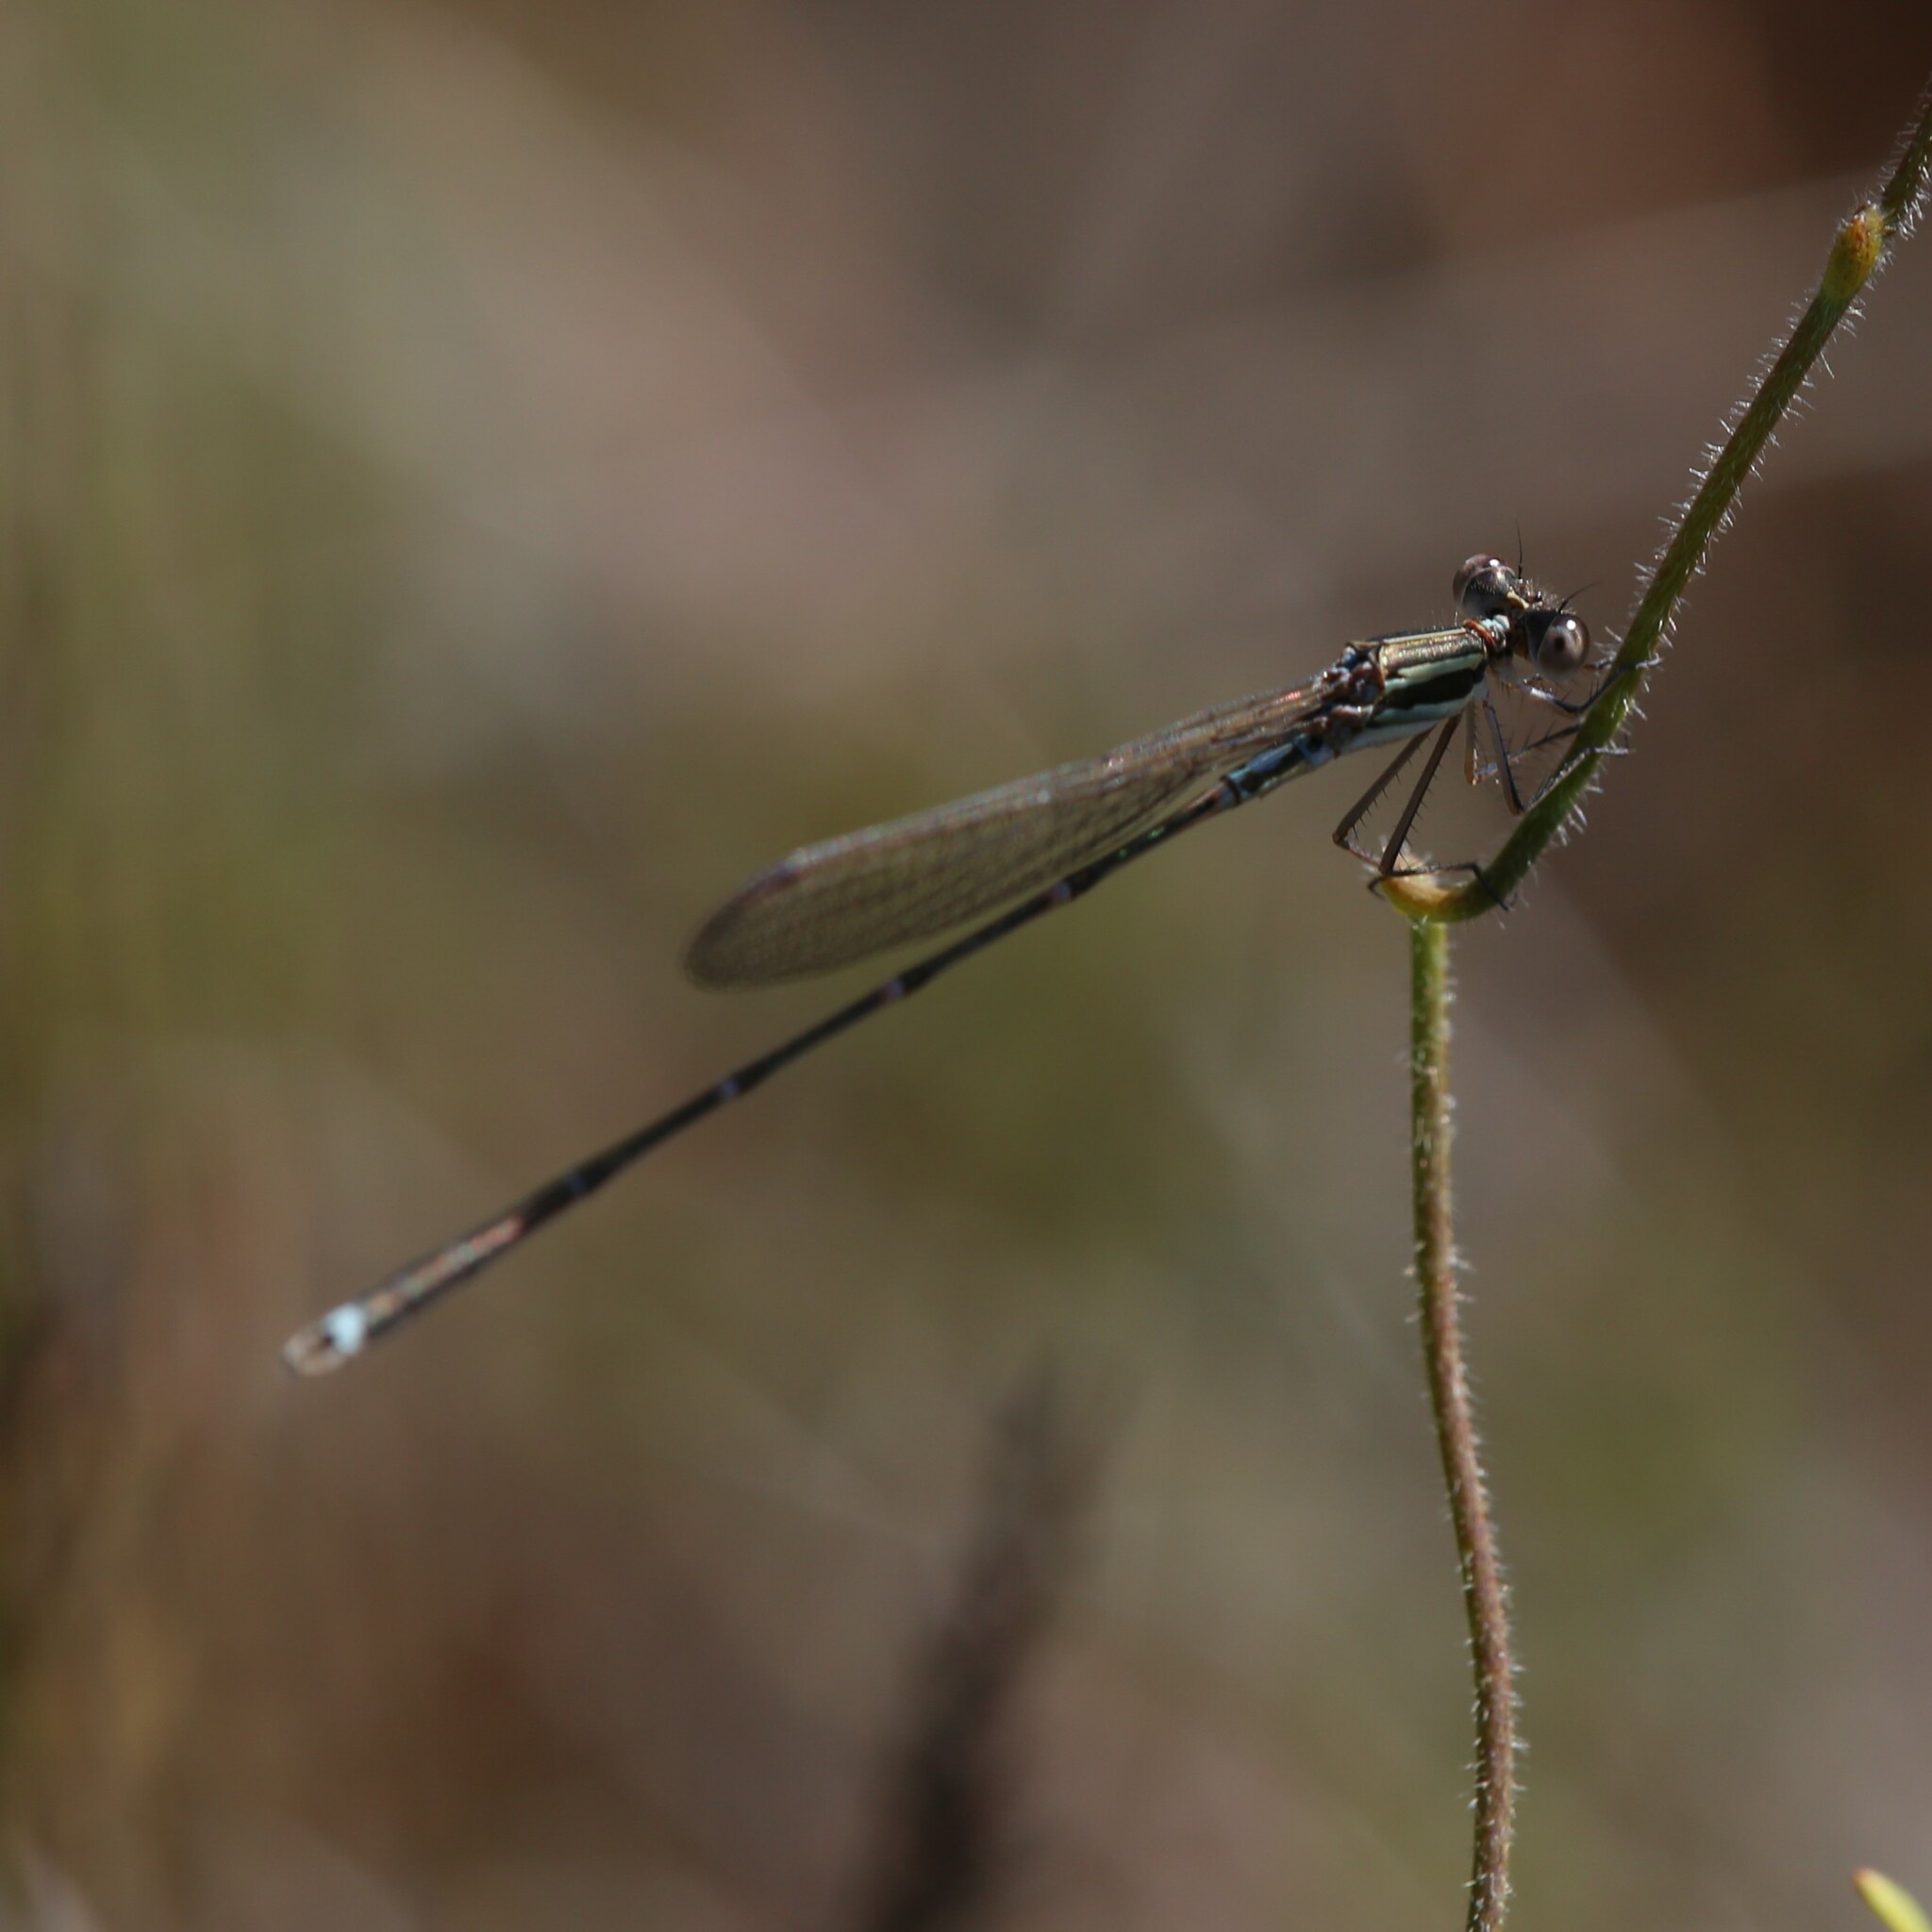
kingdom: Animalia
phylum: Arthropoda
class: Insecta
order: Odonata
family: Lestidae
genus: Austrolestes
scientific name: Austrolestes analis
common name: Slender ringtail
